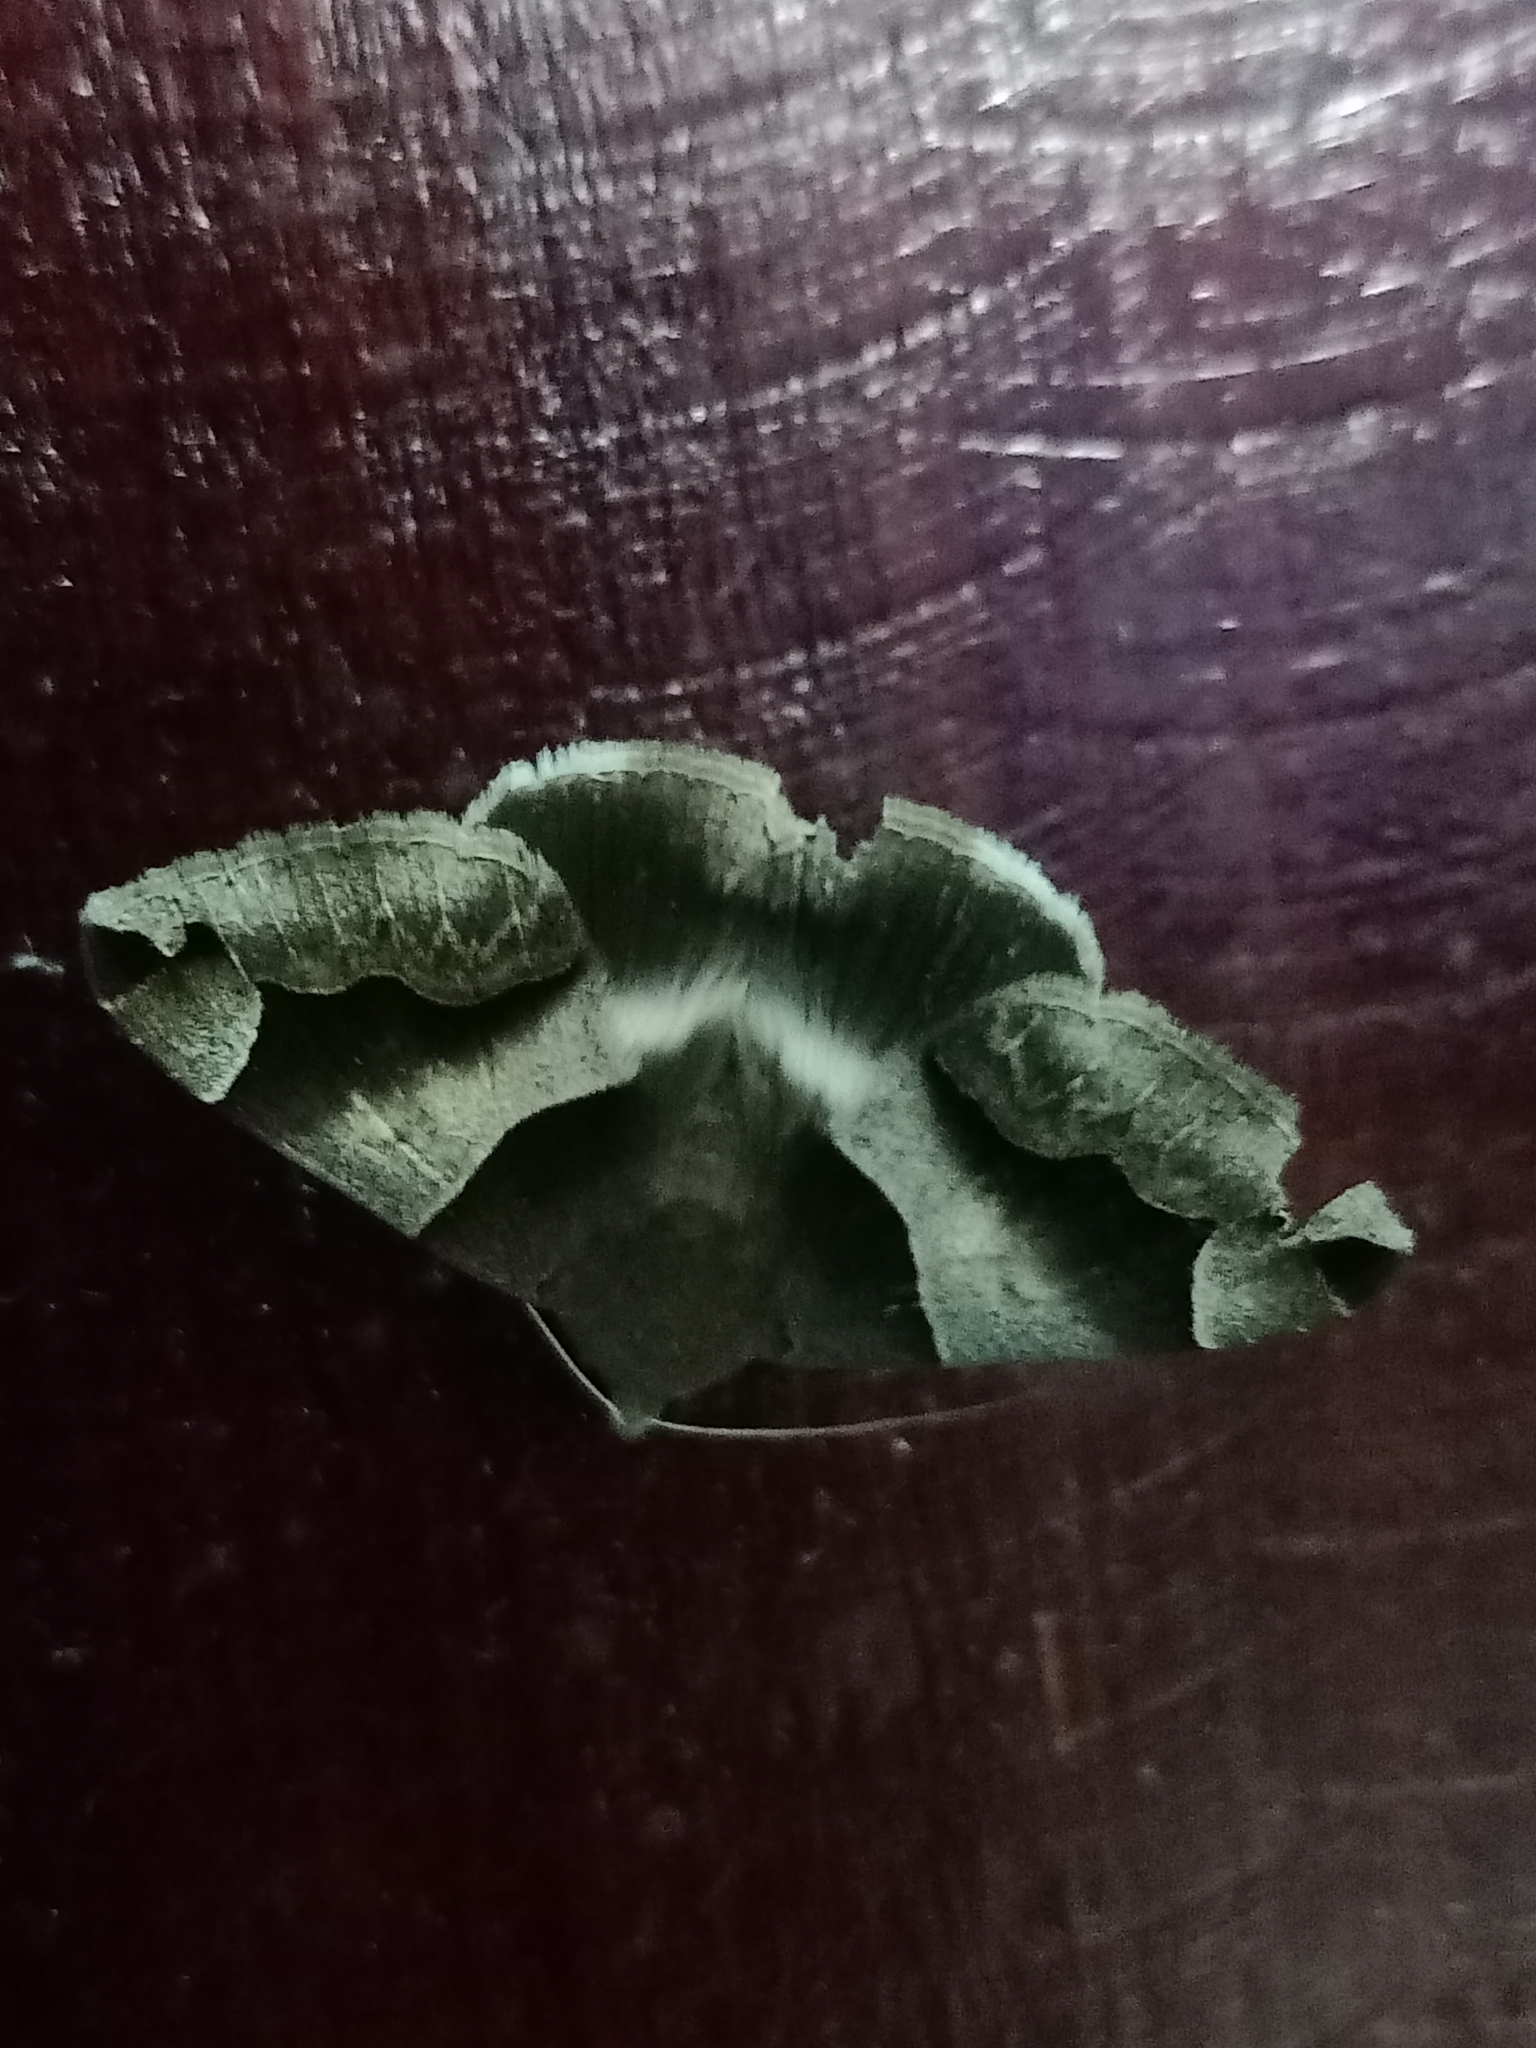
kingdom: Animalia
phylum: Arthropoda
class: Insecta
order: Lepidoptera
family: Erebidae
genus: Dysgonia
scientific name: Dysgonia stuposa
